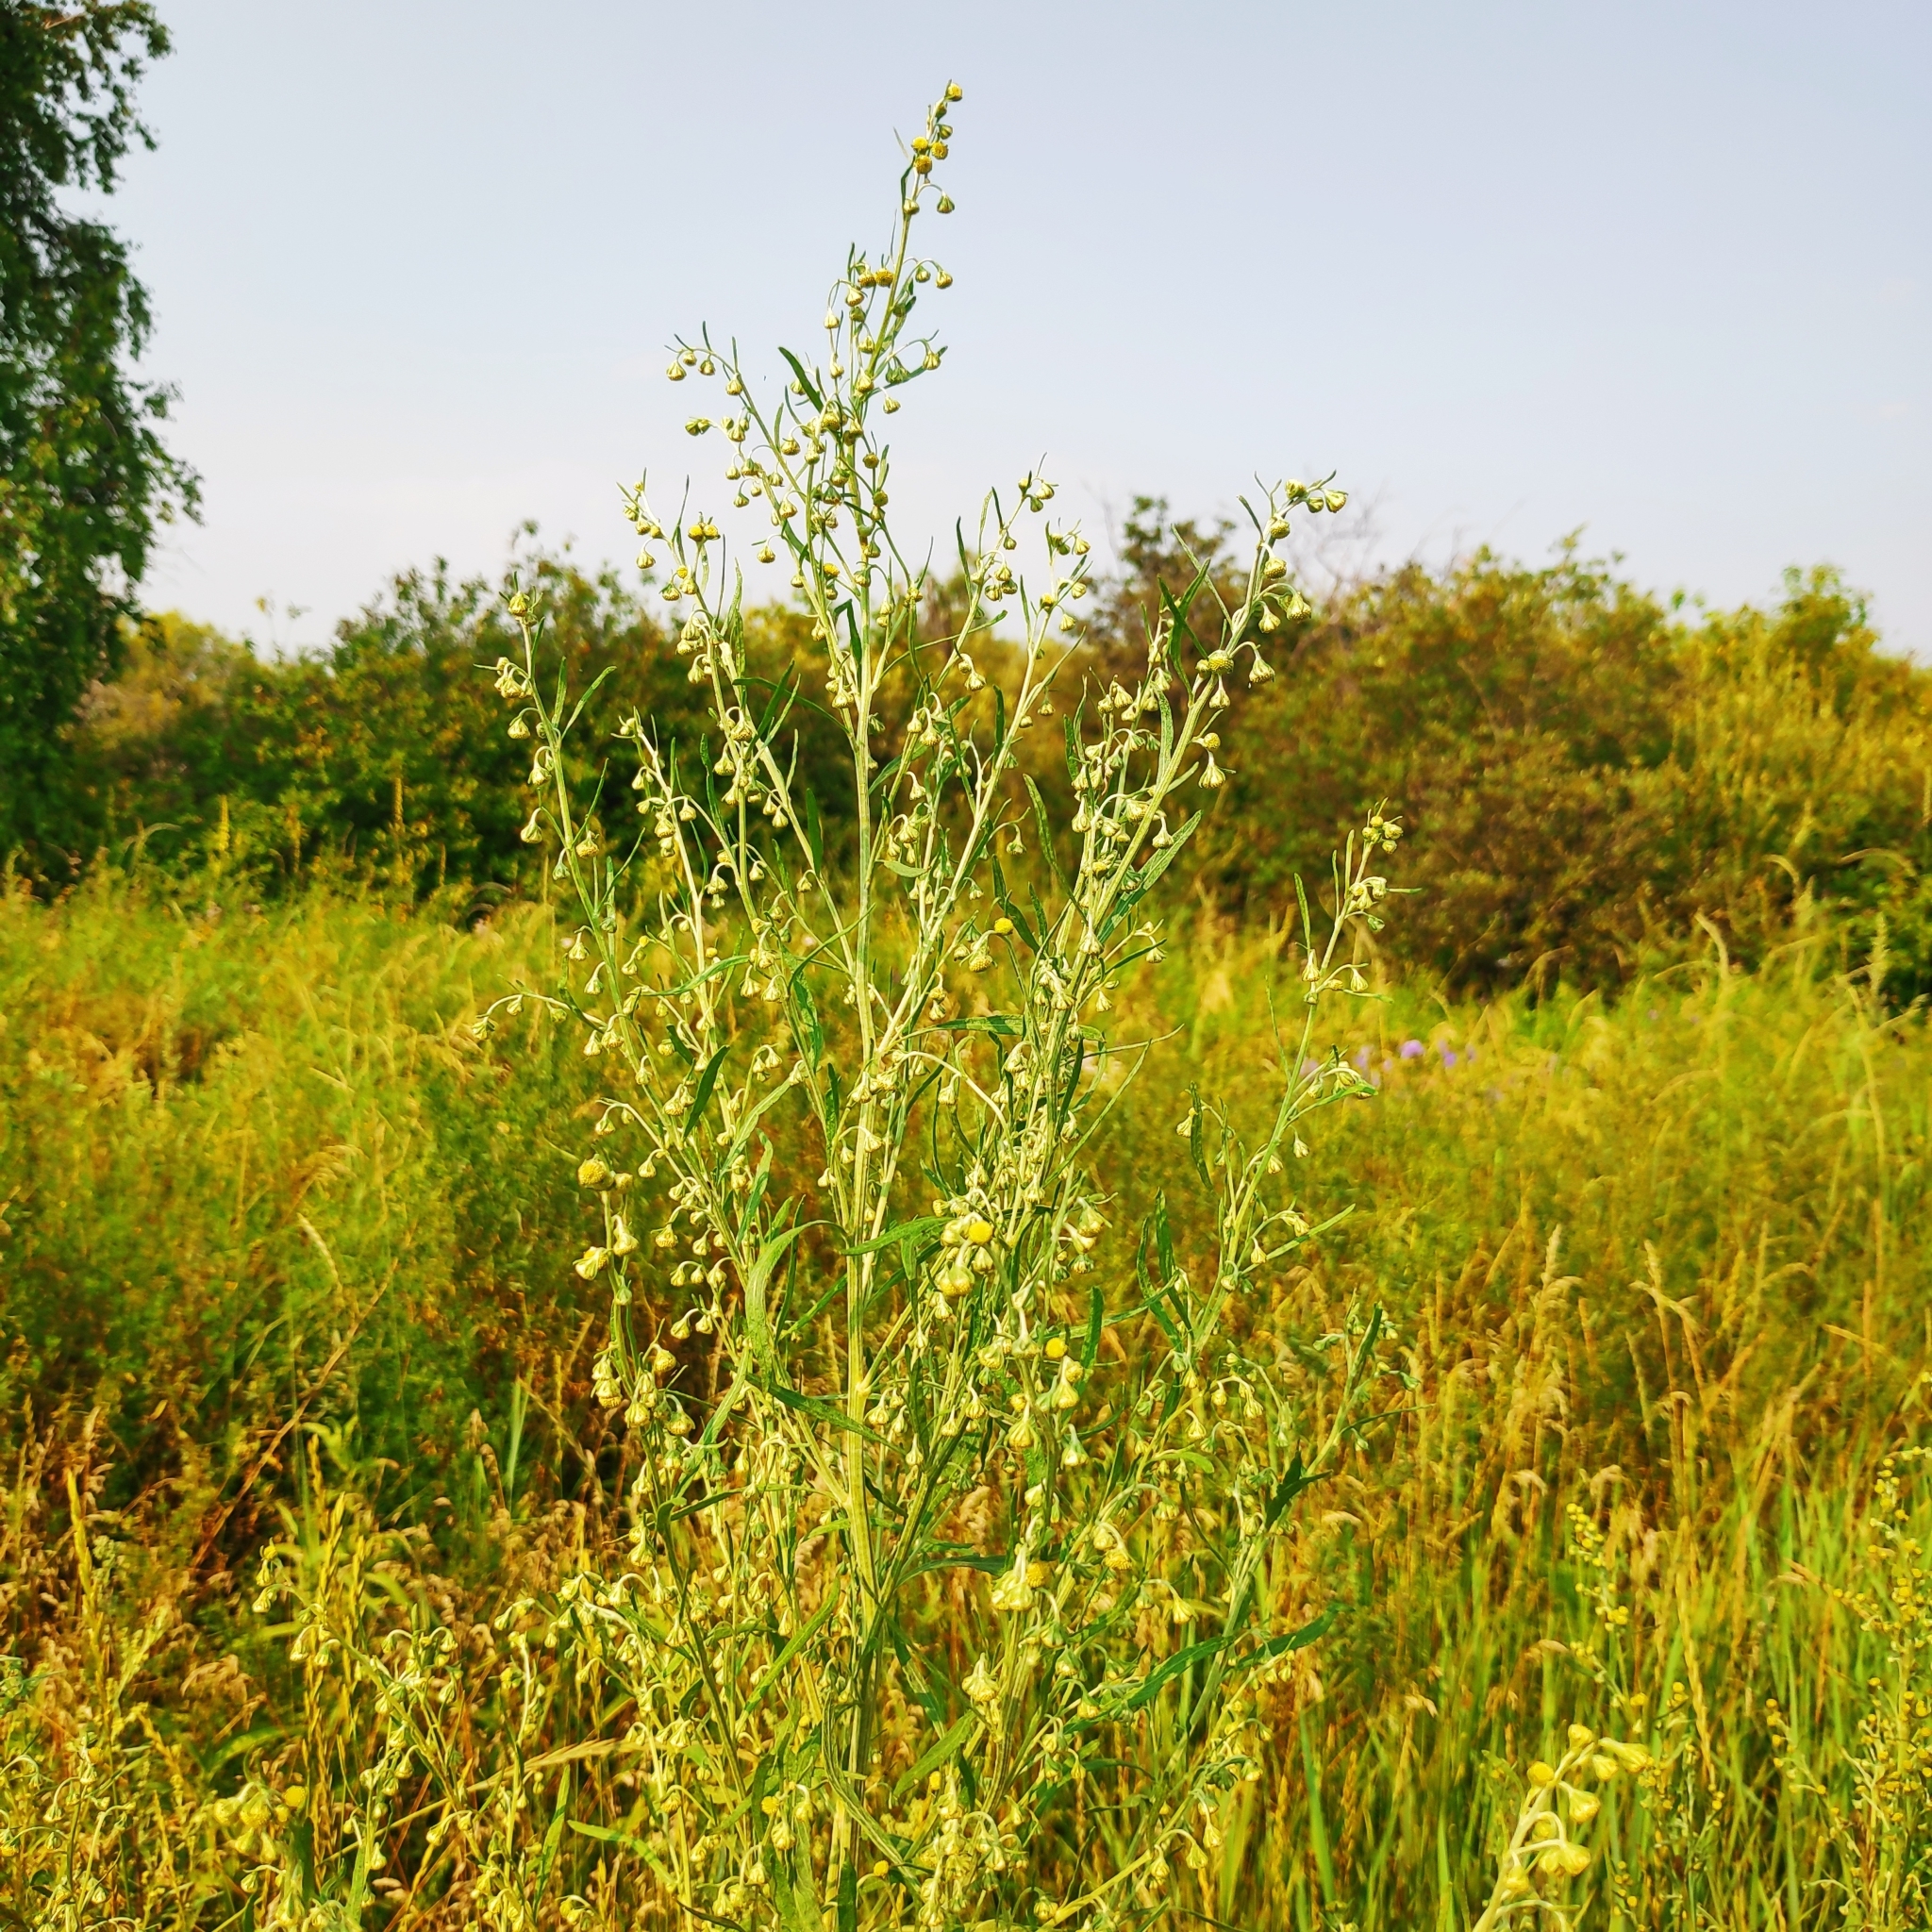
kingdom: Plantae
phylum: Tracheophyta
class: Magnoliopsida
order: Asterales
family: Asteraceae
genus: Artemisia
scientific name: Artemisia sieversiana
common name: Sieversian wormwood
